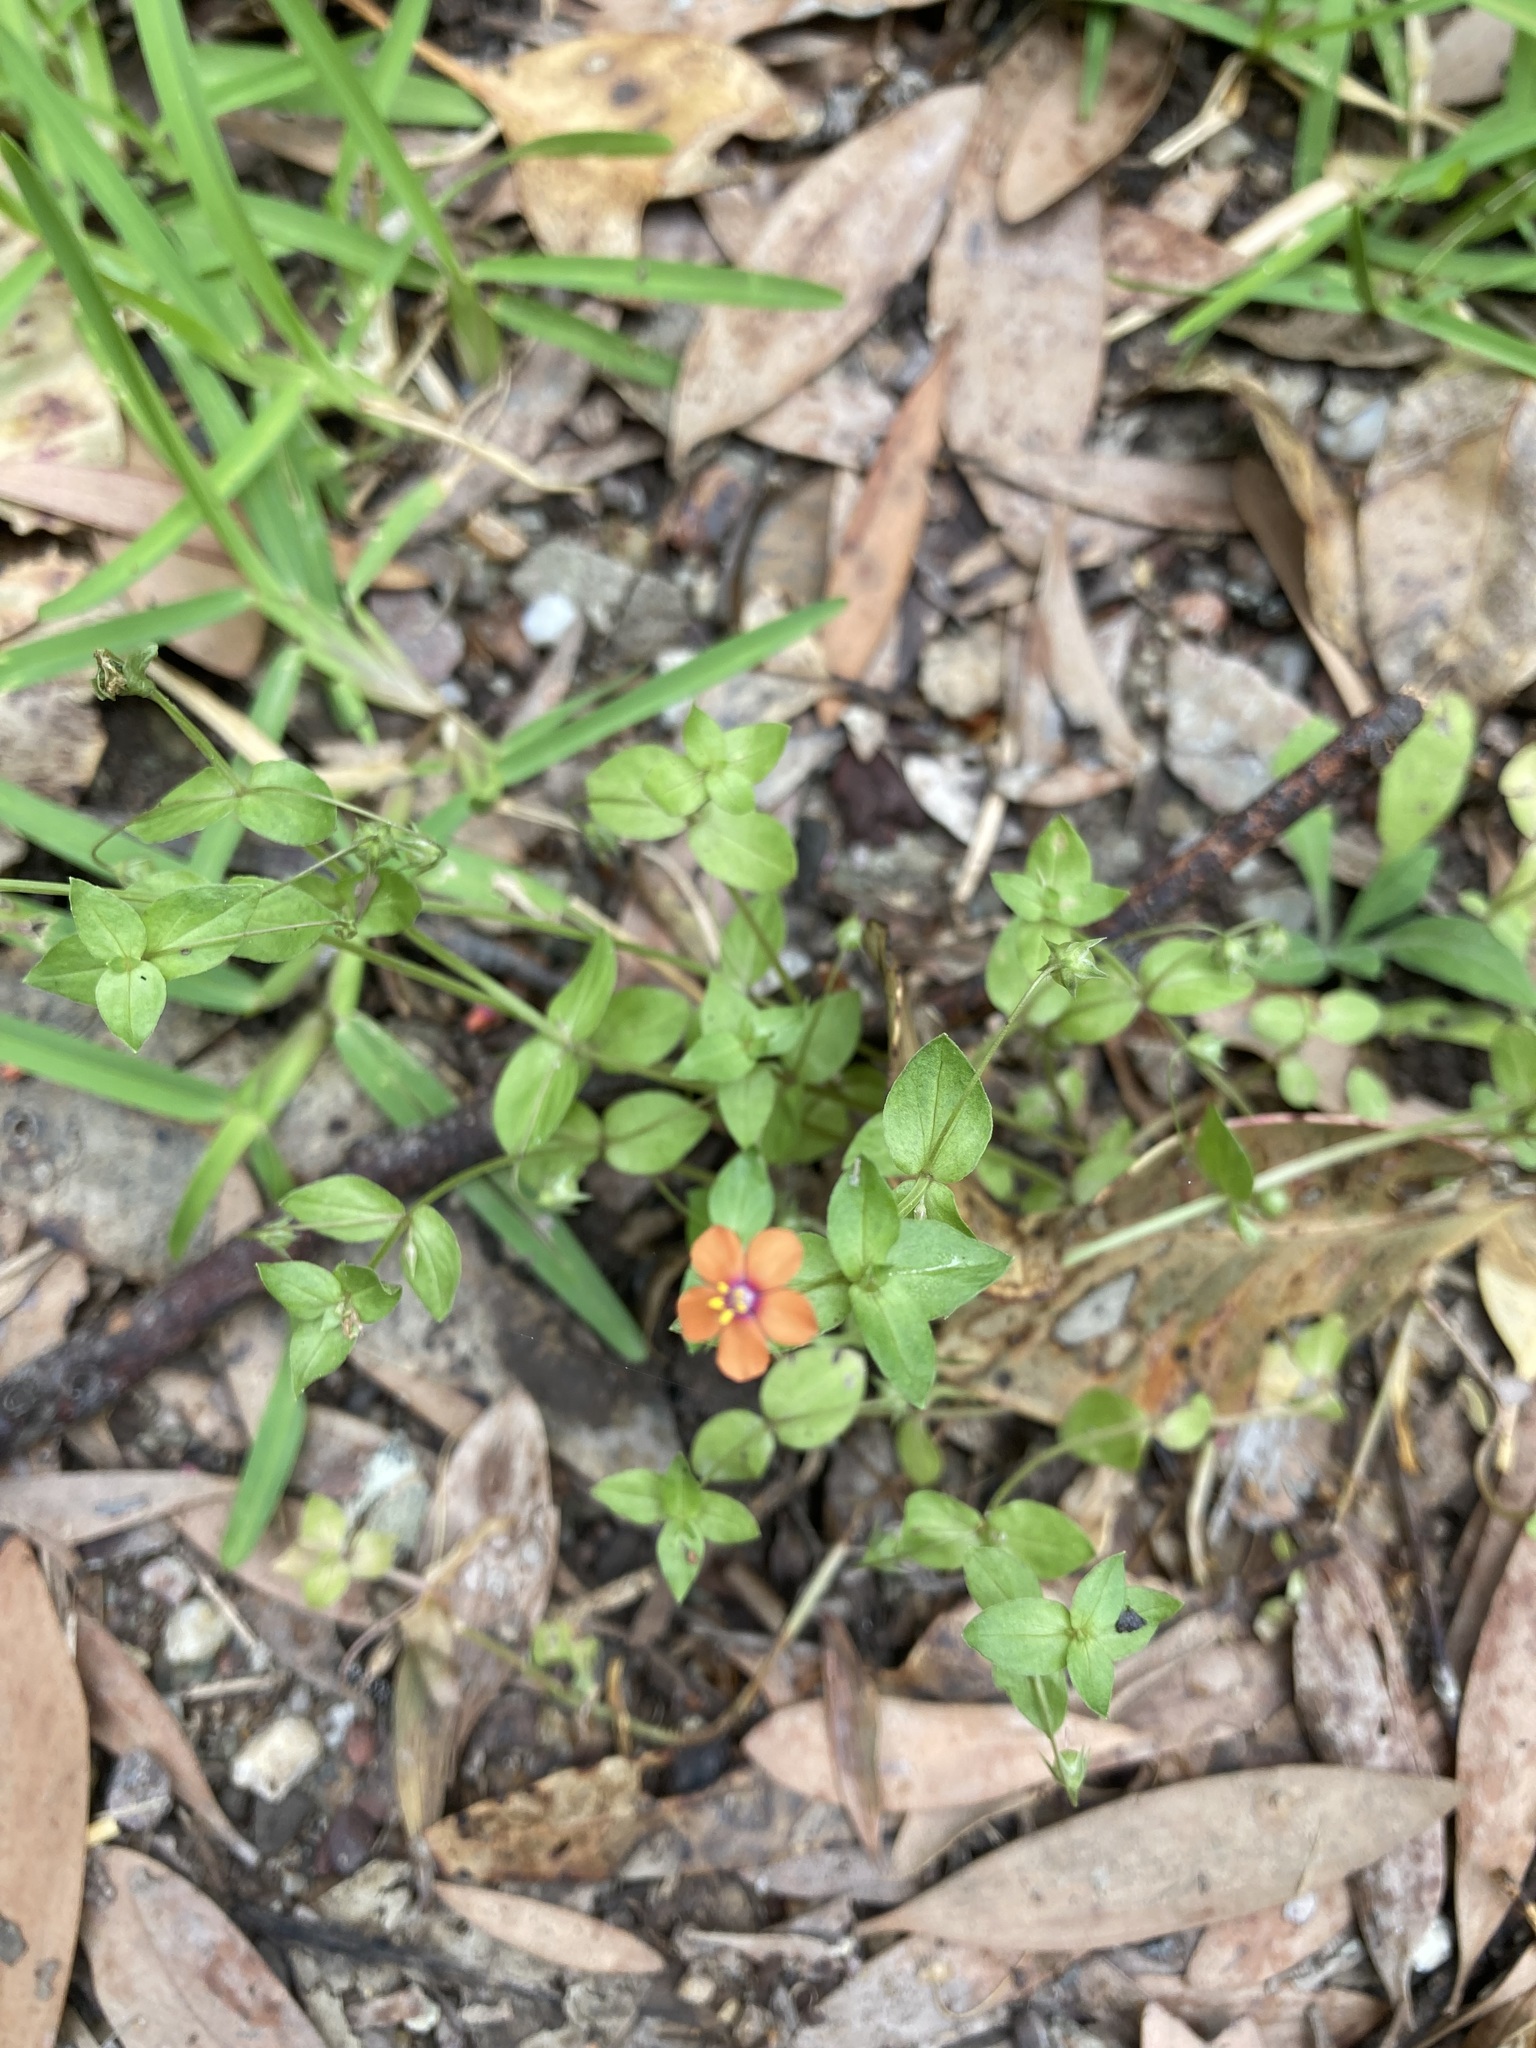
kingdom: Plantae
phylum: Tracheophyta
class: Magnoliopsida
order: Ericales
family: Primulaceae
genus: Lysimachia
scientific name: Lysimachia arvensis
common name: Scarlet pimpernel
